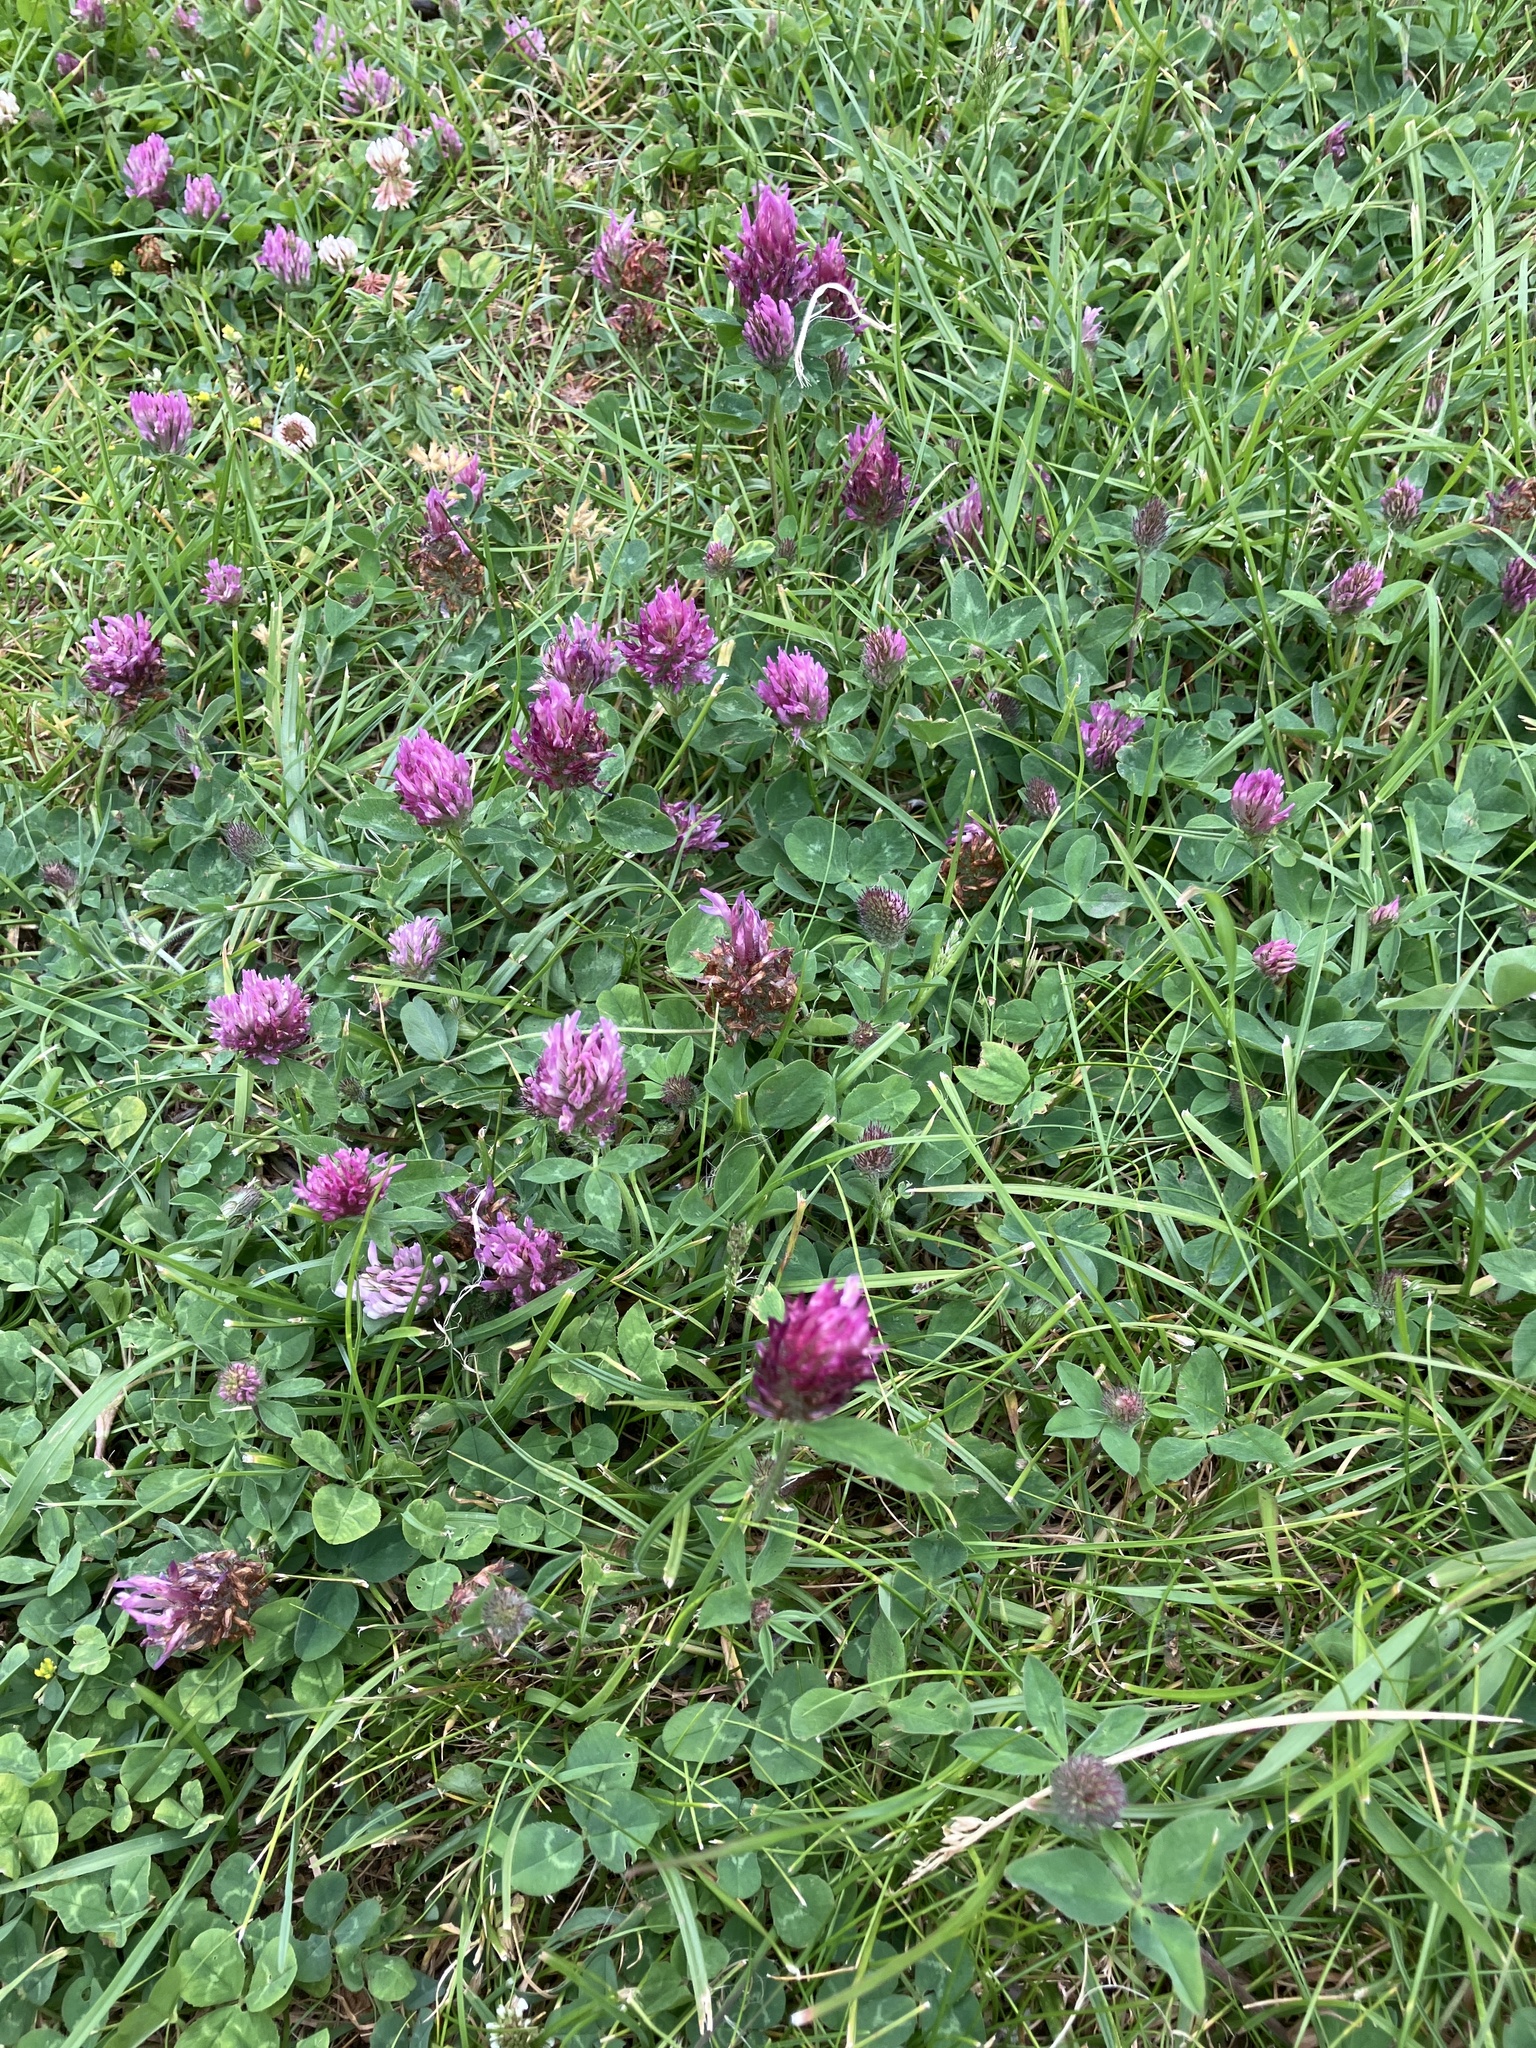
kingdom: Plantae
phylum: Tracheophyta
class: Magnoliopsida
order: Fabales
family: Fabaceae
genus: Trifolium
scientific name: Trifolium pratense
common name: Red clover
